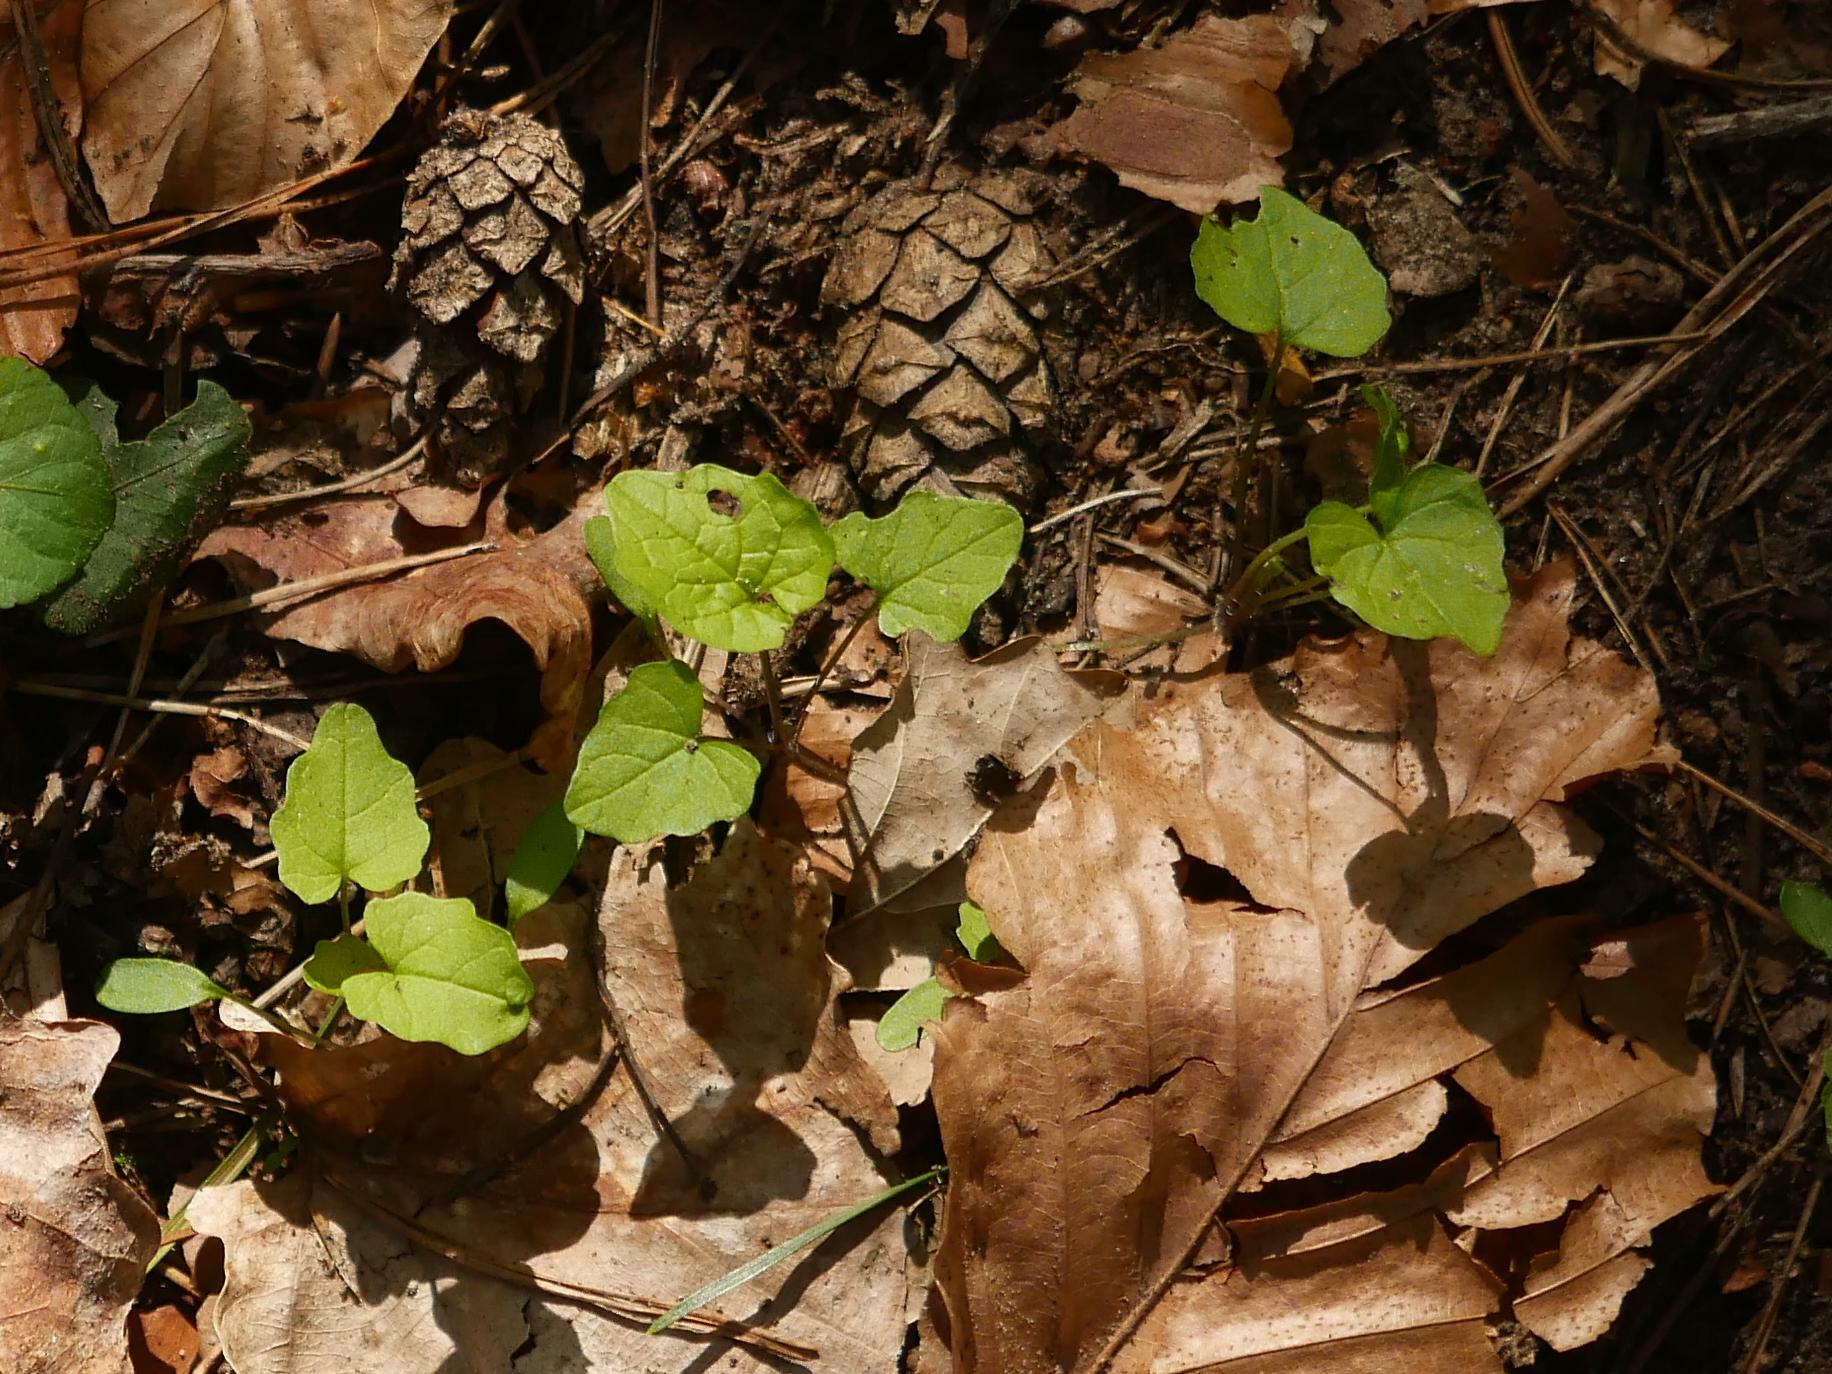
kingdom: Plantae
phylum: Tracheophyta
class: Magnoliopsida
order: Brassicales
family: Brassicaceae
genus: Alliaria
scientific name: Alliaria petiolata
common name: Garlic mustard
